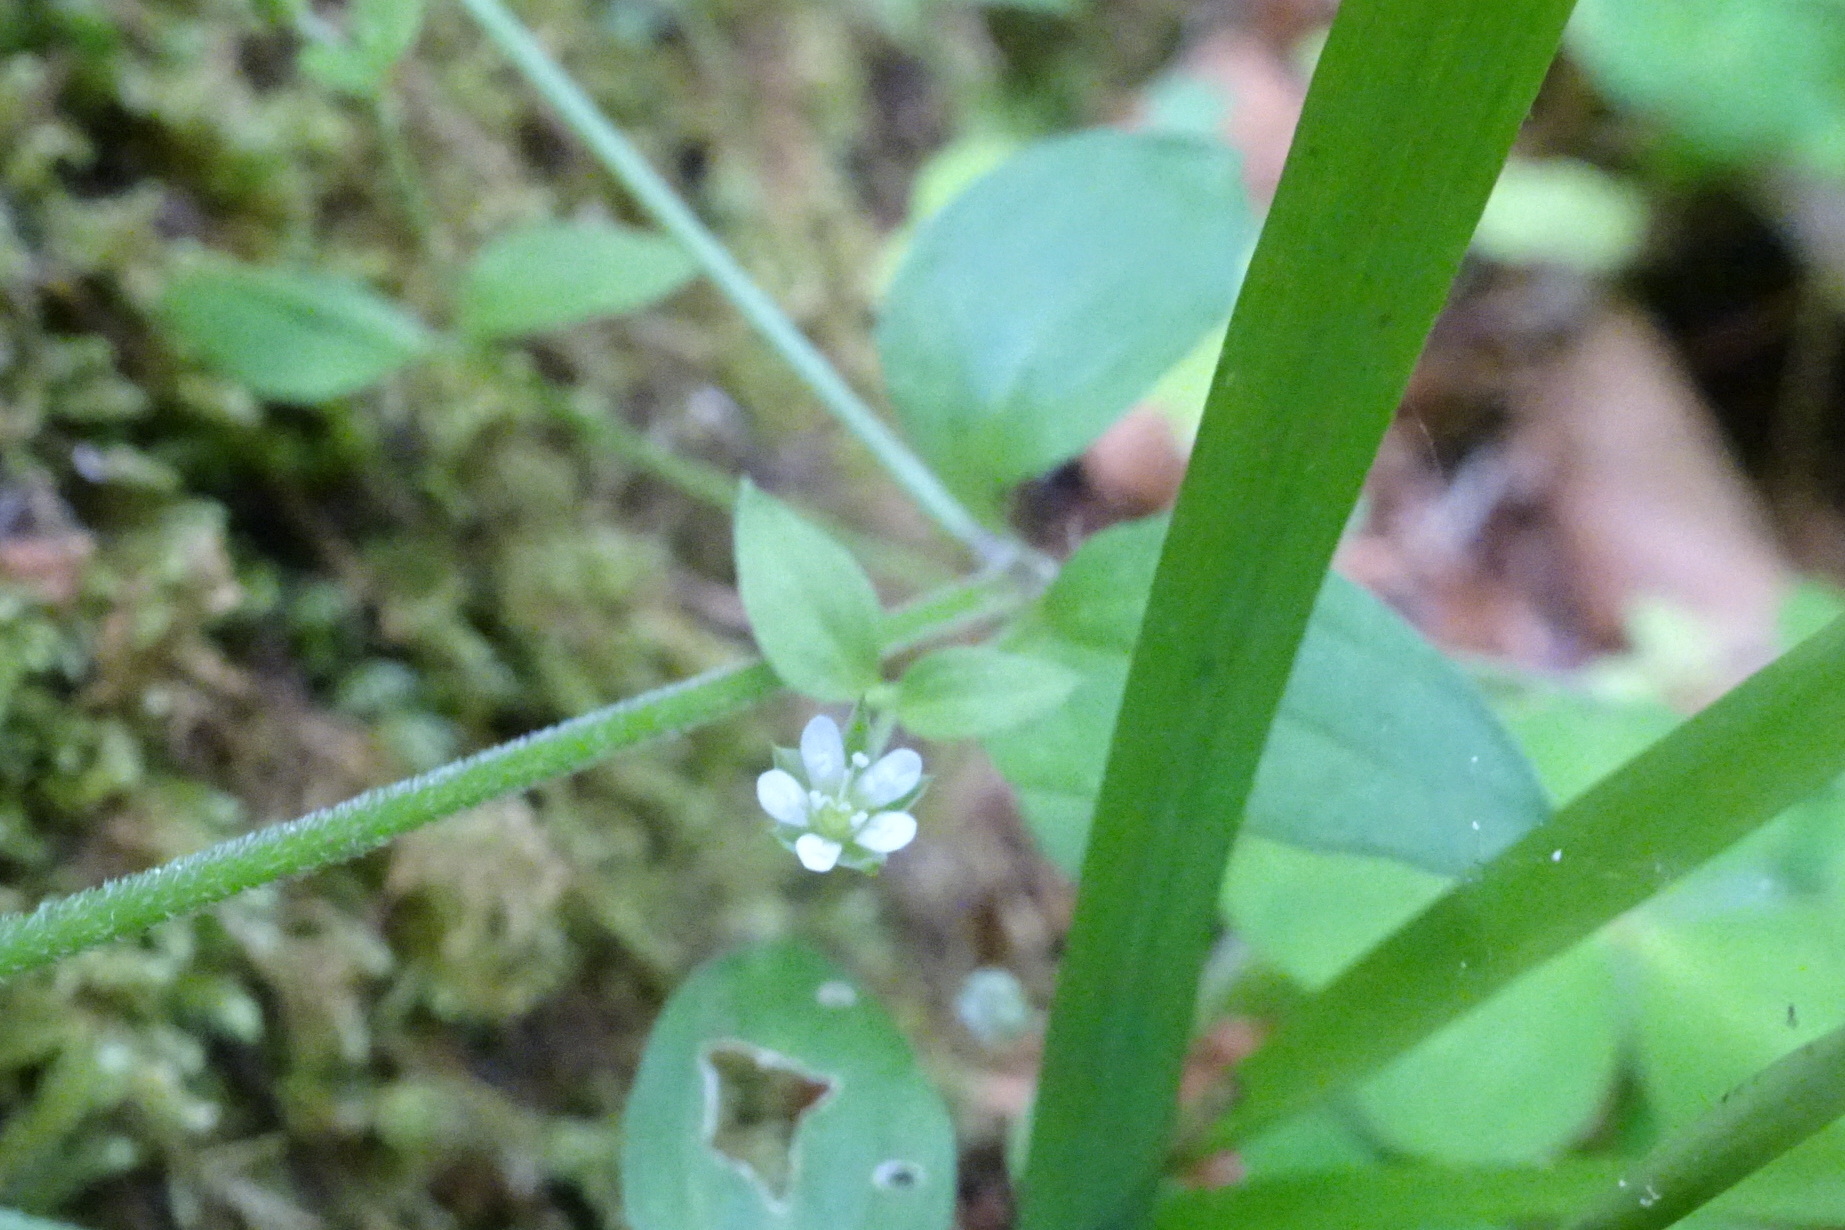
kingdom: Plantae
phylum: Tracheophyta
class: Magnoliopsida
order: Caryophyllales
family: Caryophyllaceae
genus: Moehringia
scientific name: Moehringia trinervia
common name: Three-nerved sandwort
